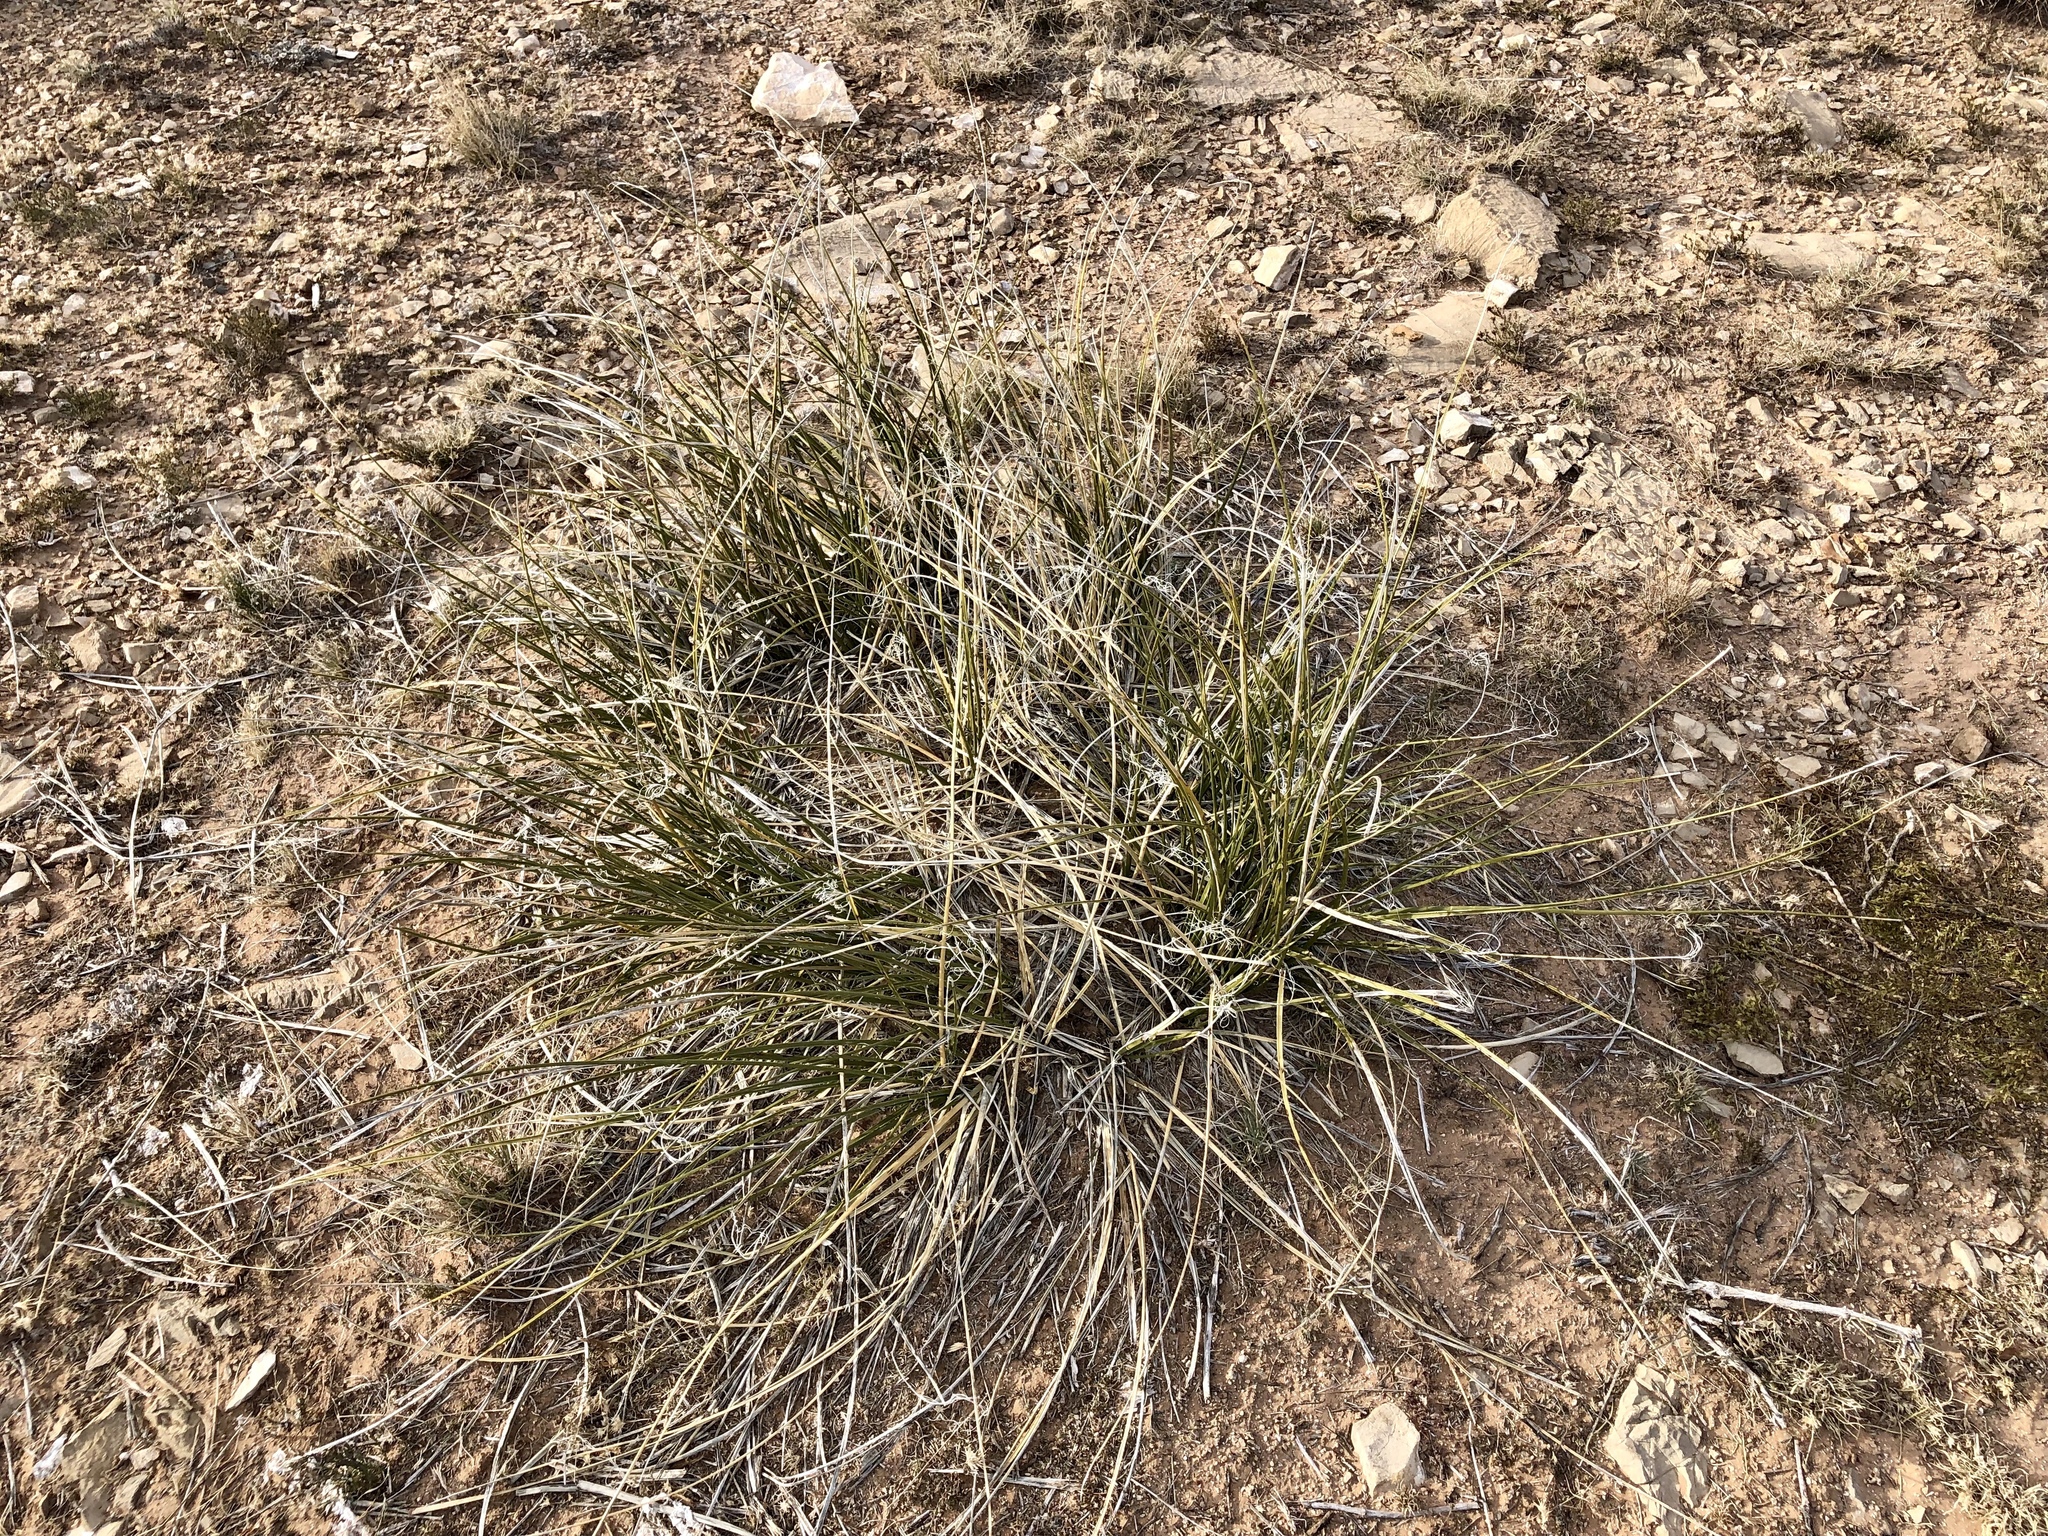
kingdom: Plantae
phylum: Tracheophyta
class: Liliopsida
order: Asparagales
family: Asparagaceae
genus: Nolina
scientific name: Nolina texana
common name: Texas sacahuiste
